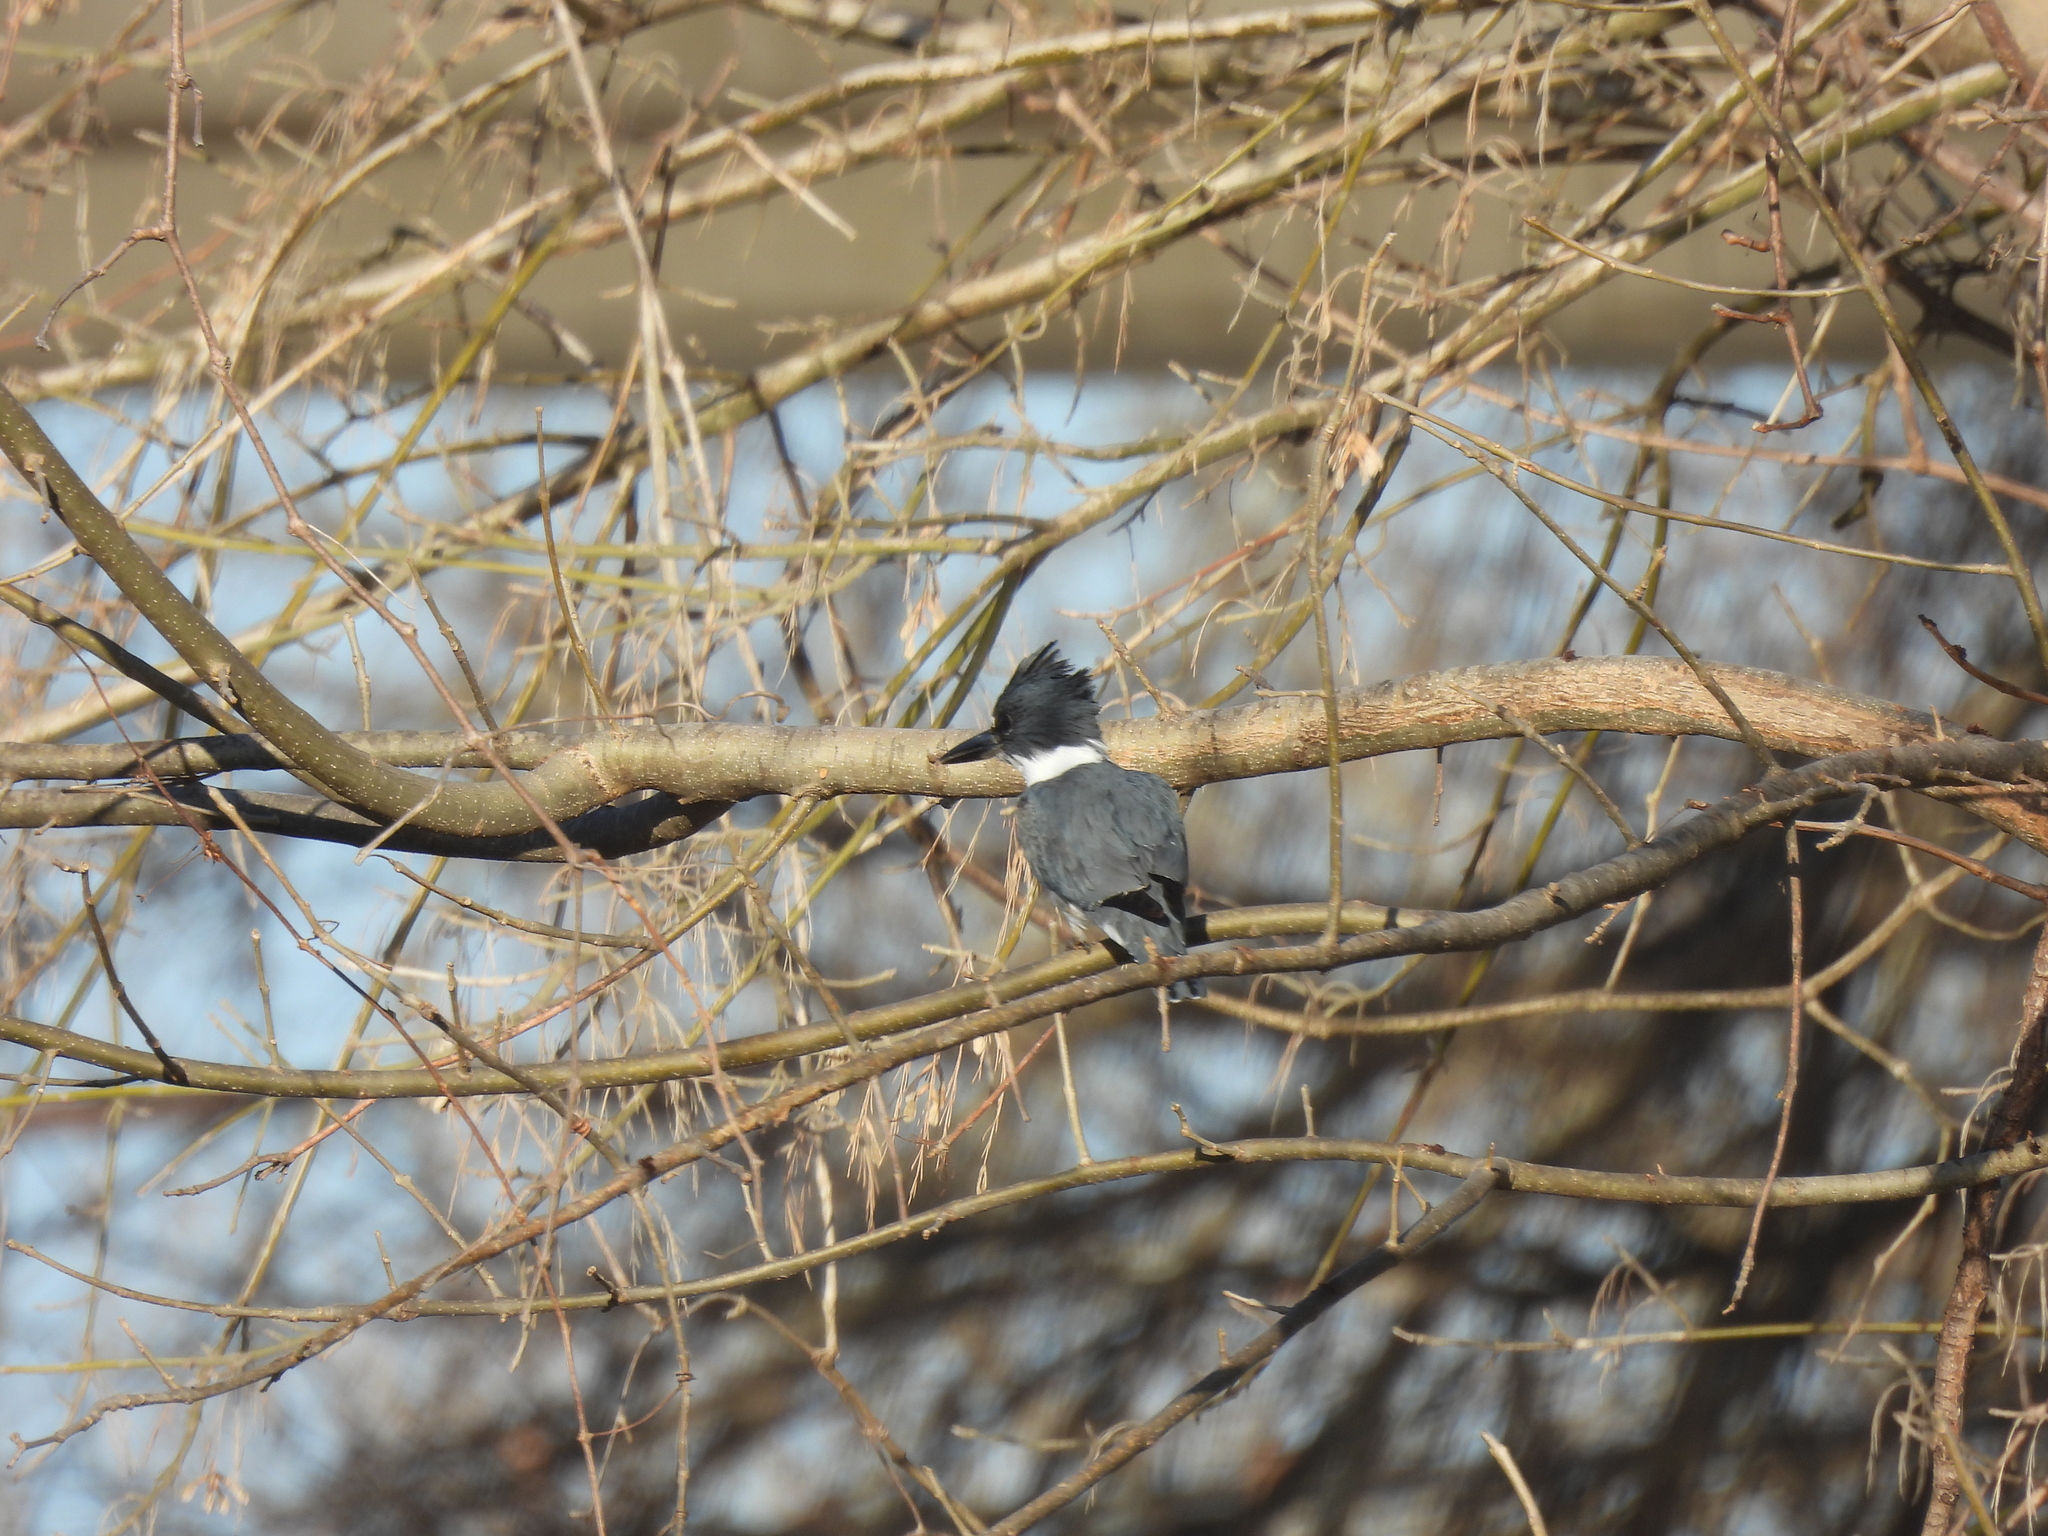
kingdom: Animalia
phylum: Chordata
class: Aves
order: Coraciiformes
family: Alcedinidae
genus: Megaceryle
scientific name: Megaceryle alcyon
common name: Belted kingfisher
